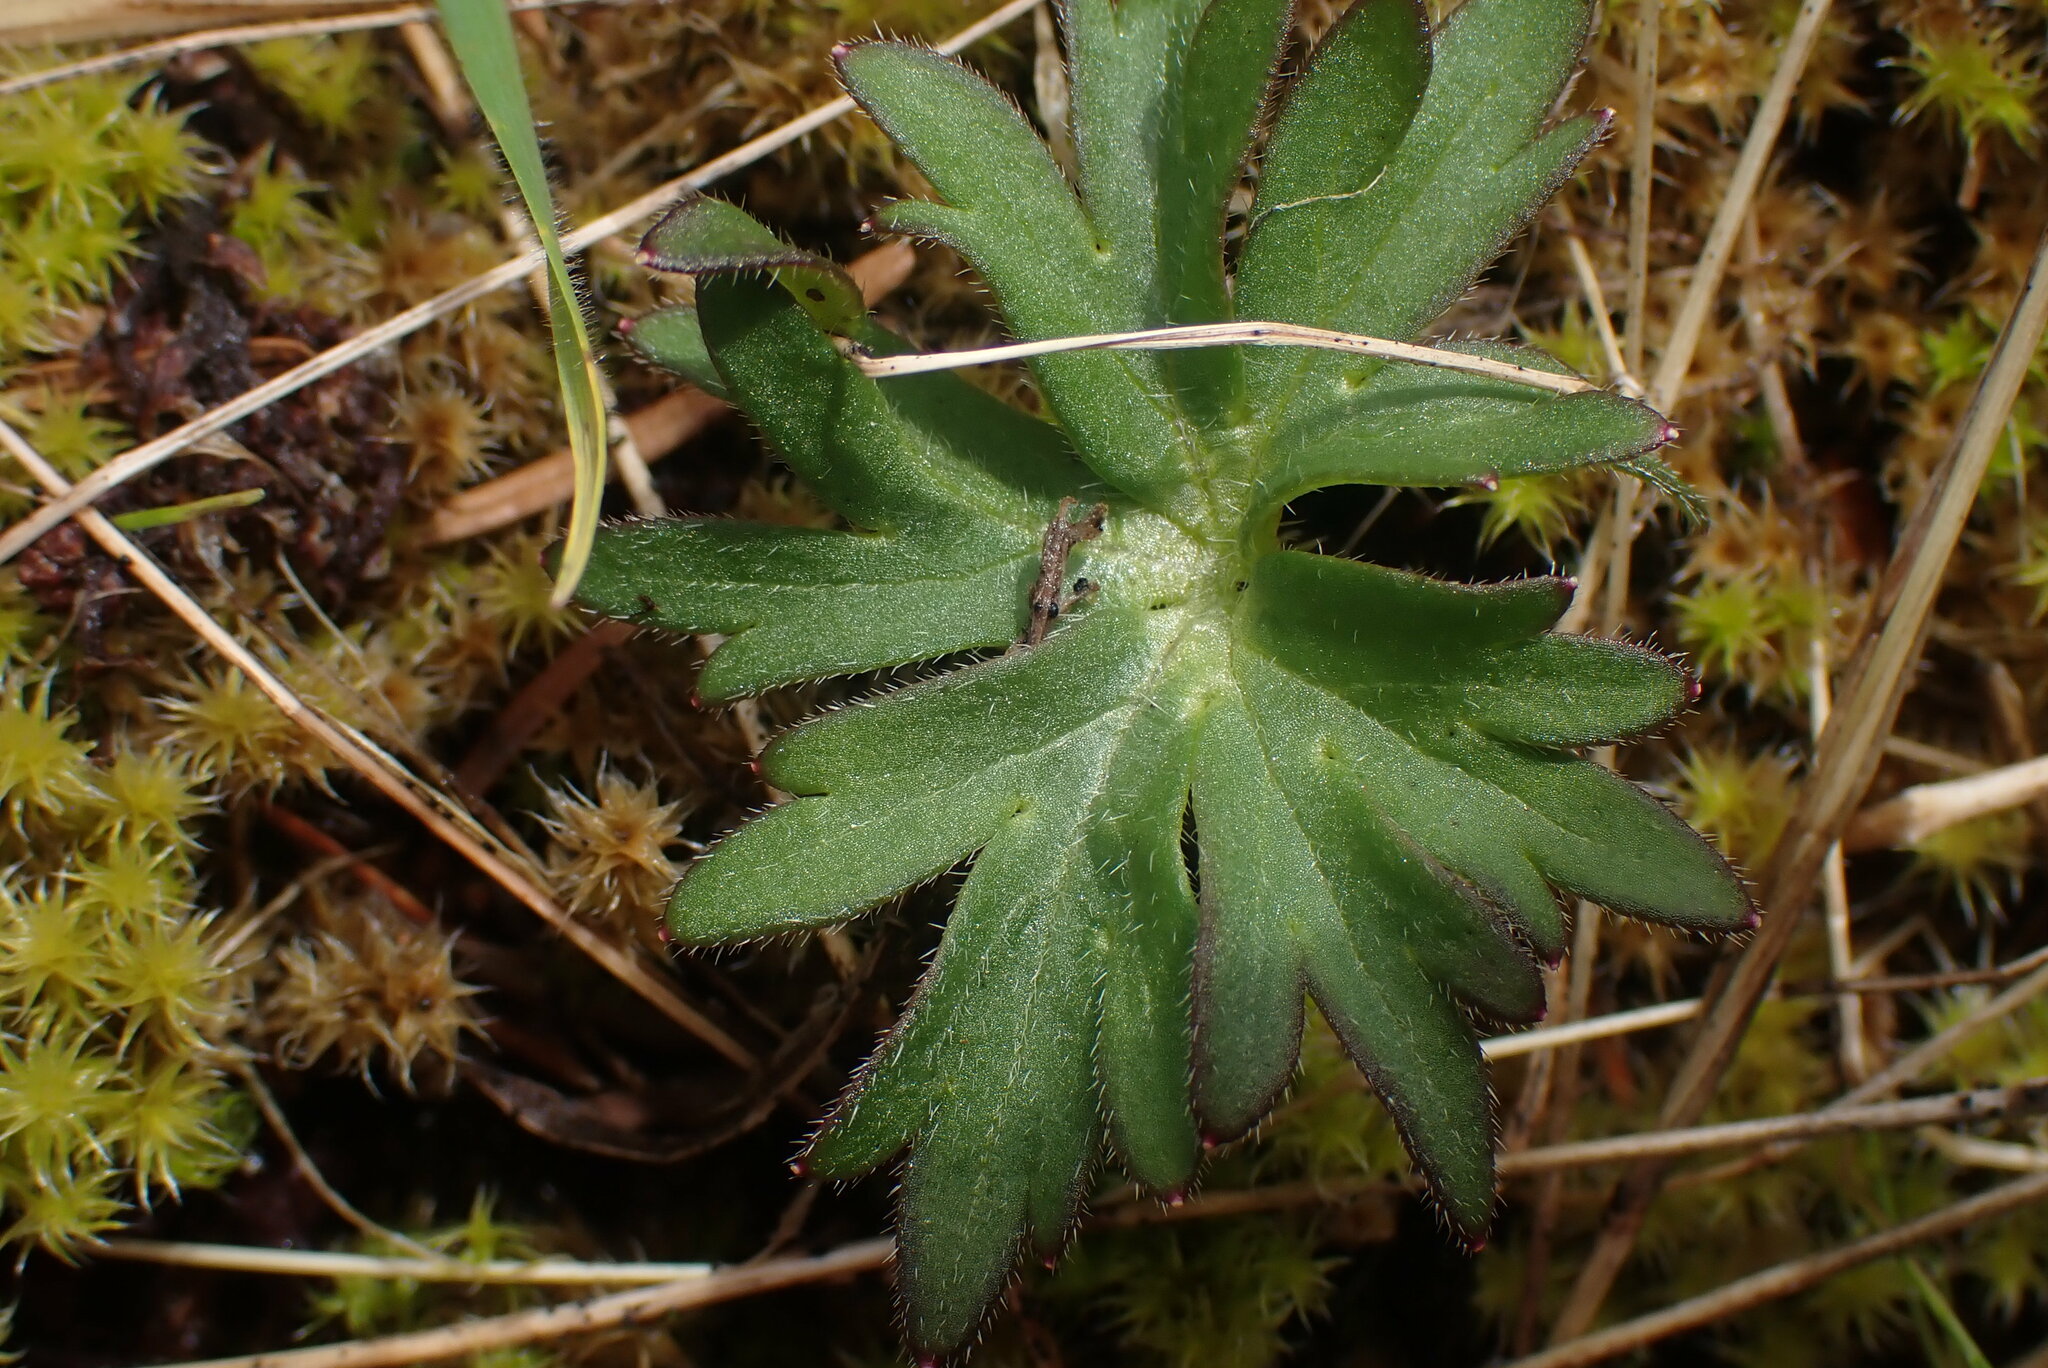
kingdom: Plantae
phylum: Tracheophyta
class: Magnoliopsida
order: Ranunculales
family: Ranunculaceae
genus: Delphinium
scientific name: Delphinium menziesii
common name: Menzies's larkspur
